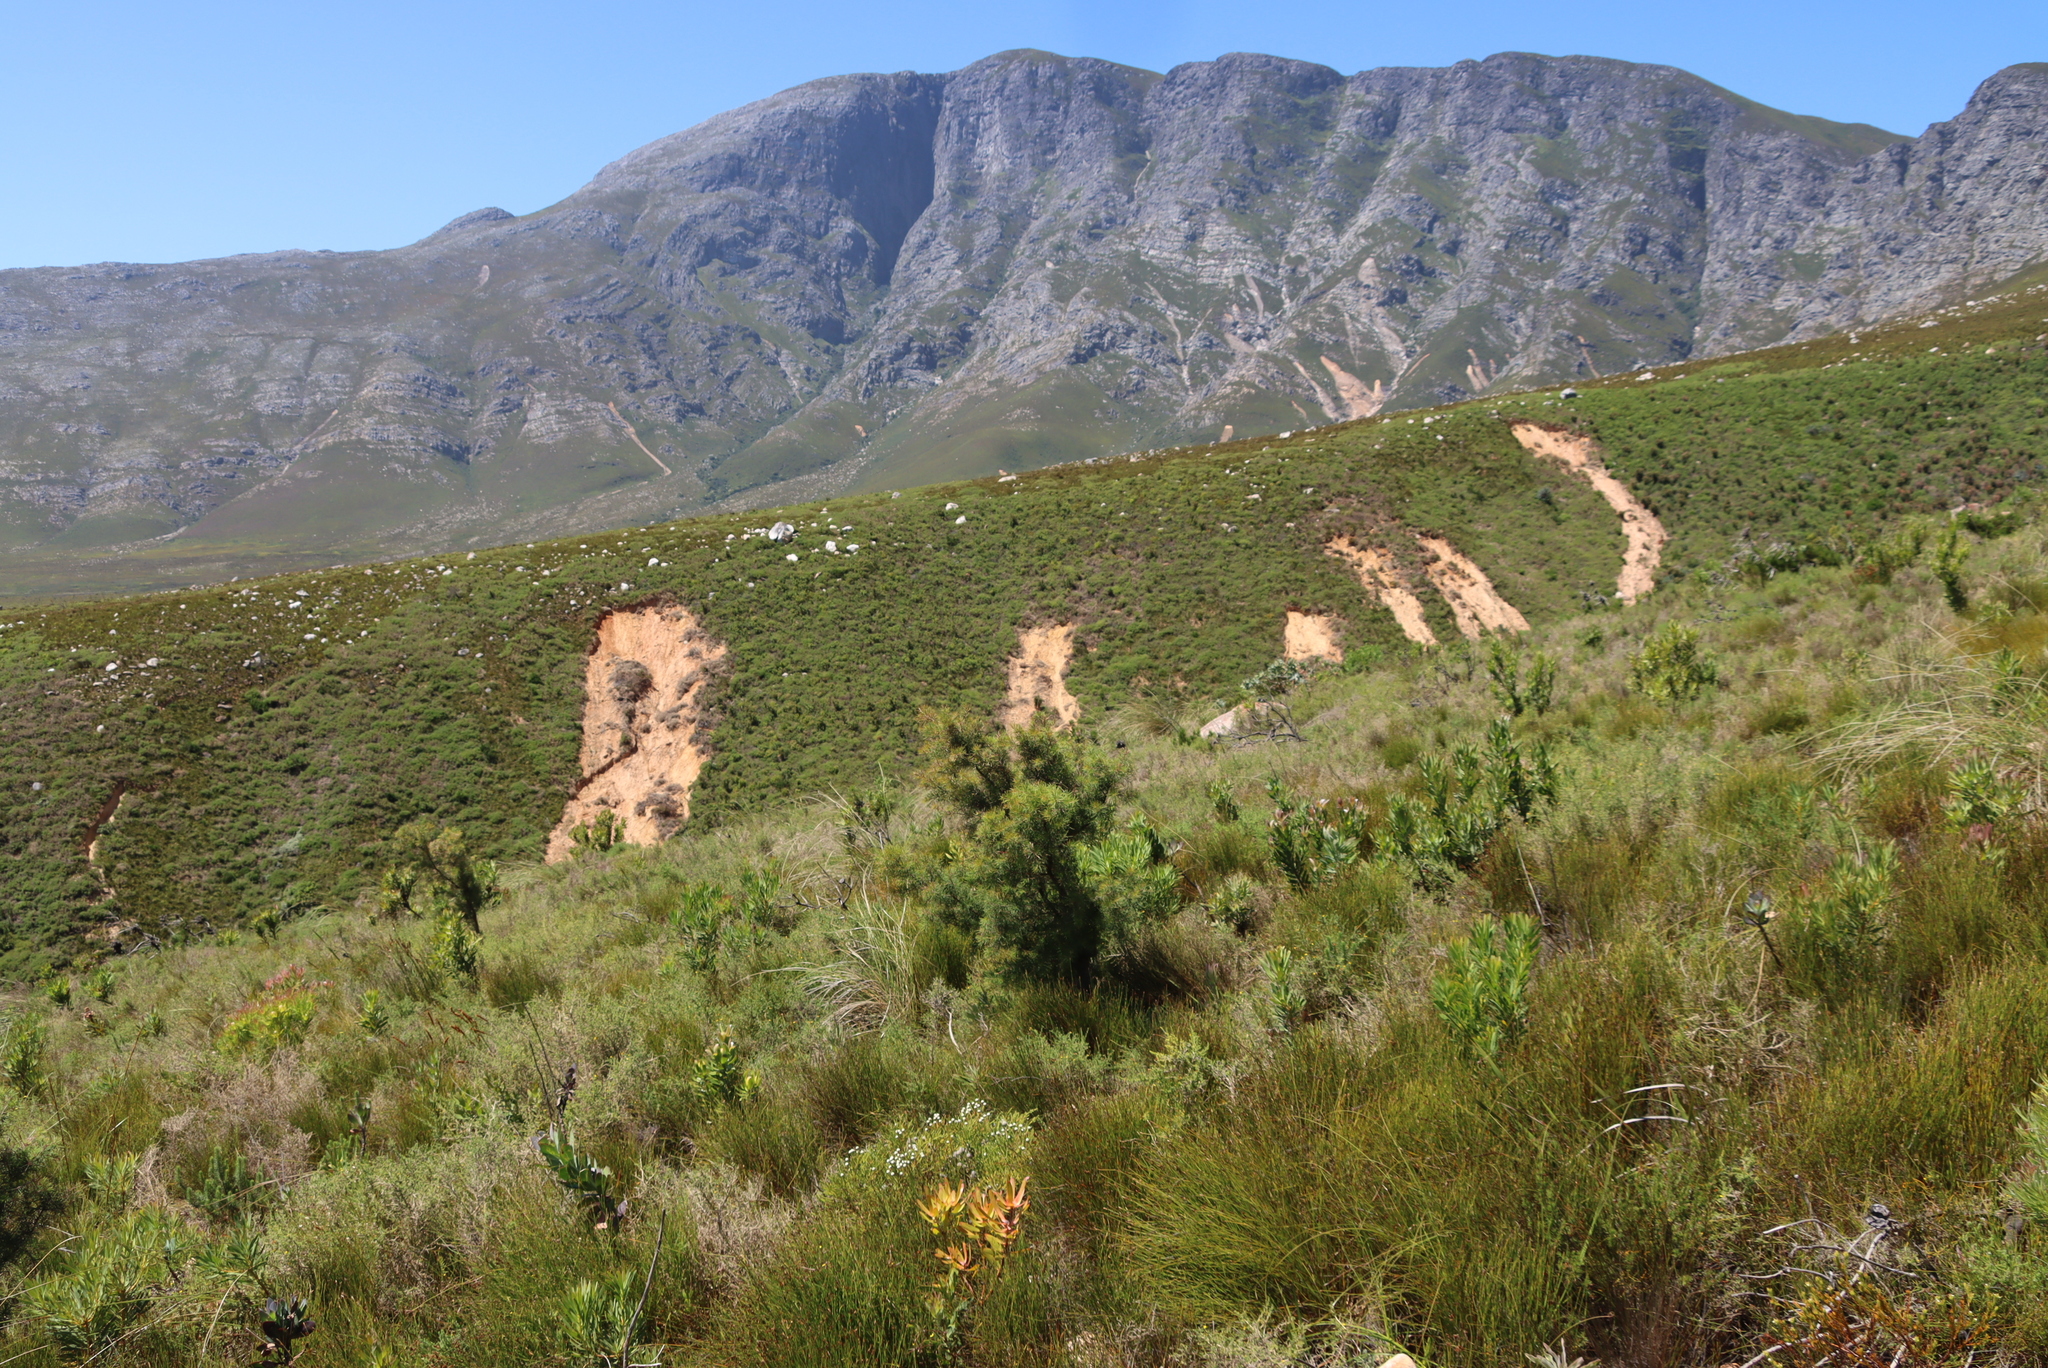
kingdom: Plantae
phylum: Tracheophyta
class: Magnoliopsida
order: Proteales
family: Proteaceae
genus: Hakea
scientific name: Hakea sericea
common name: Needle bush
